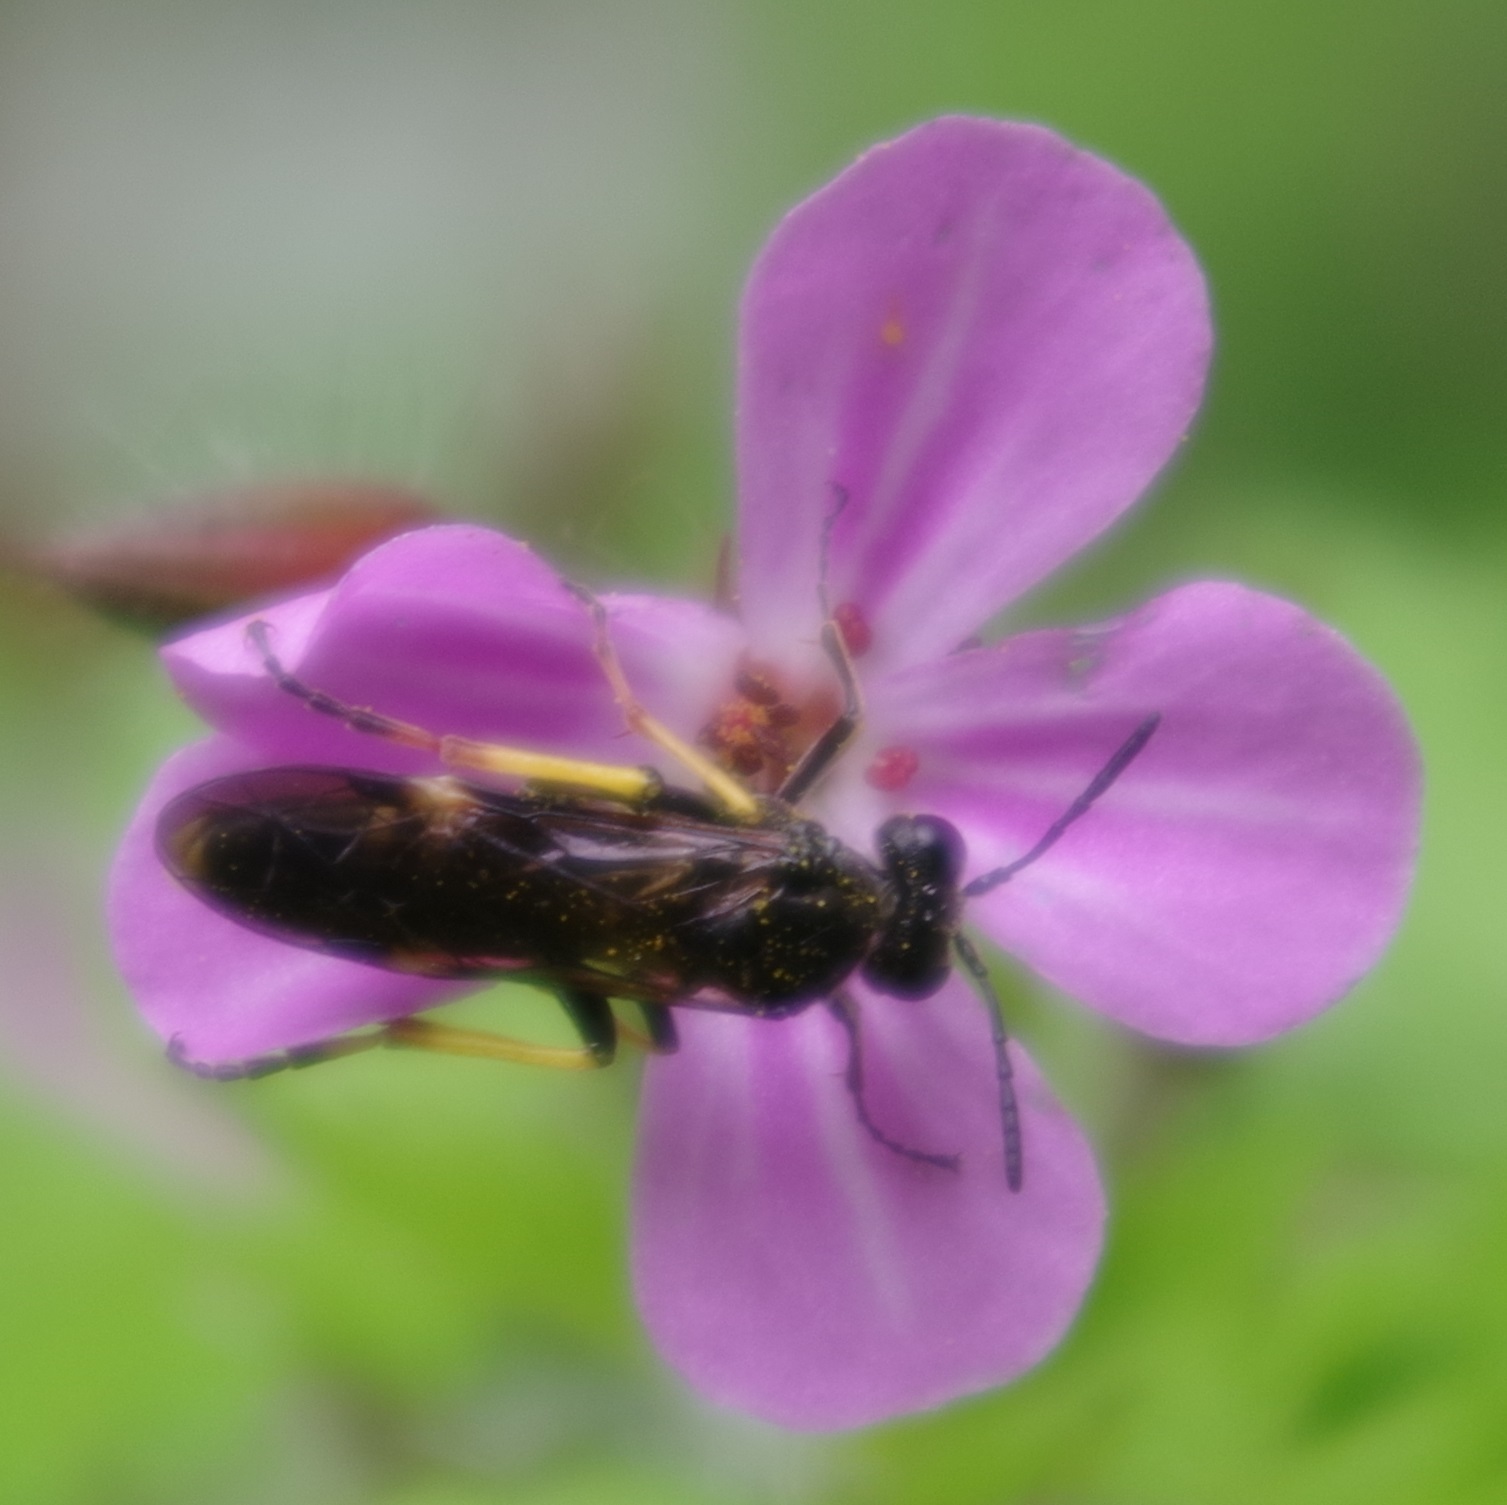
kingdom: Animalia
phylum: Arthropoda
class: Insecta
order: Hymenoptera
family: Tenthredinidae
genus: Tenthredo
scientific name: Tenthredo koehleri
